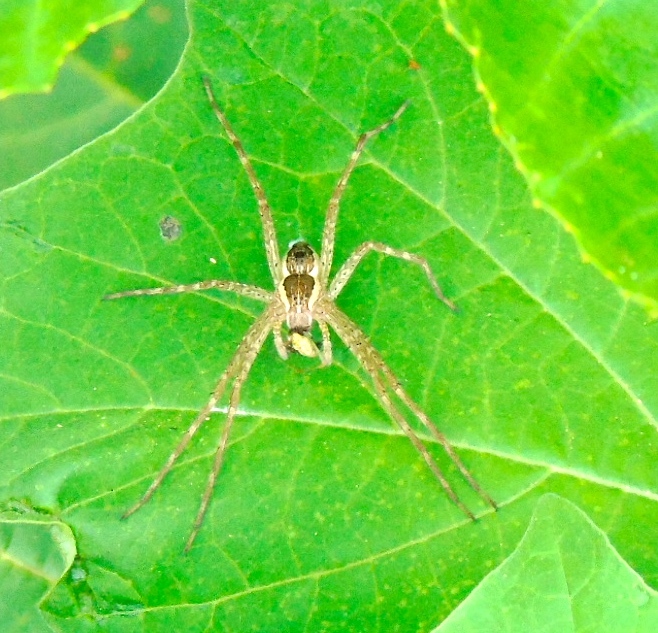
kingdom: Animalia
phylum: Arthropoda
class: Arachnida
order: Araneae
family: Pisauridae
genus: Tinus
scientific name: Tinus
